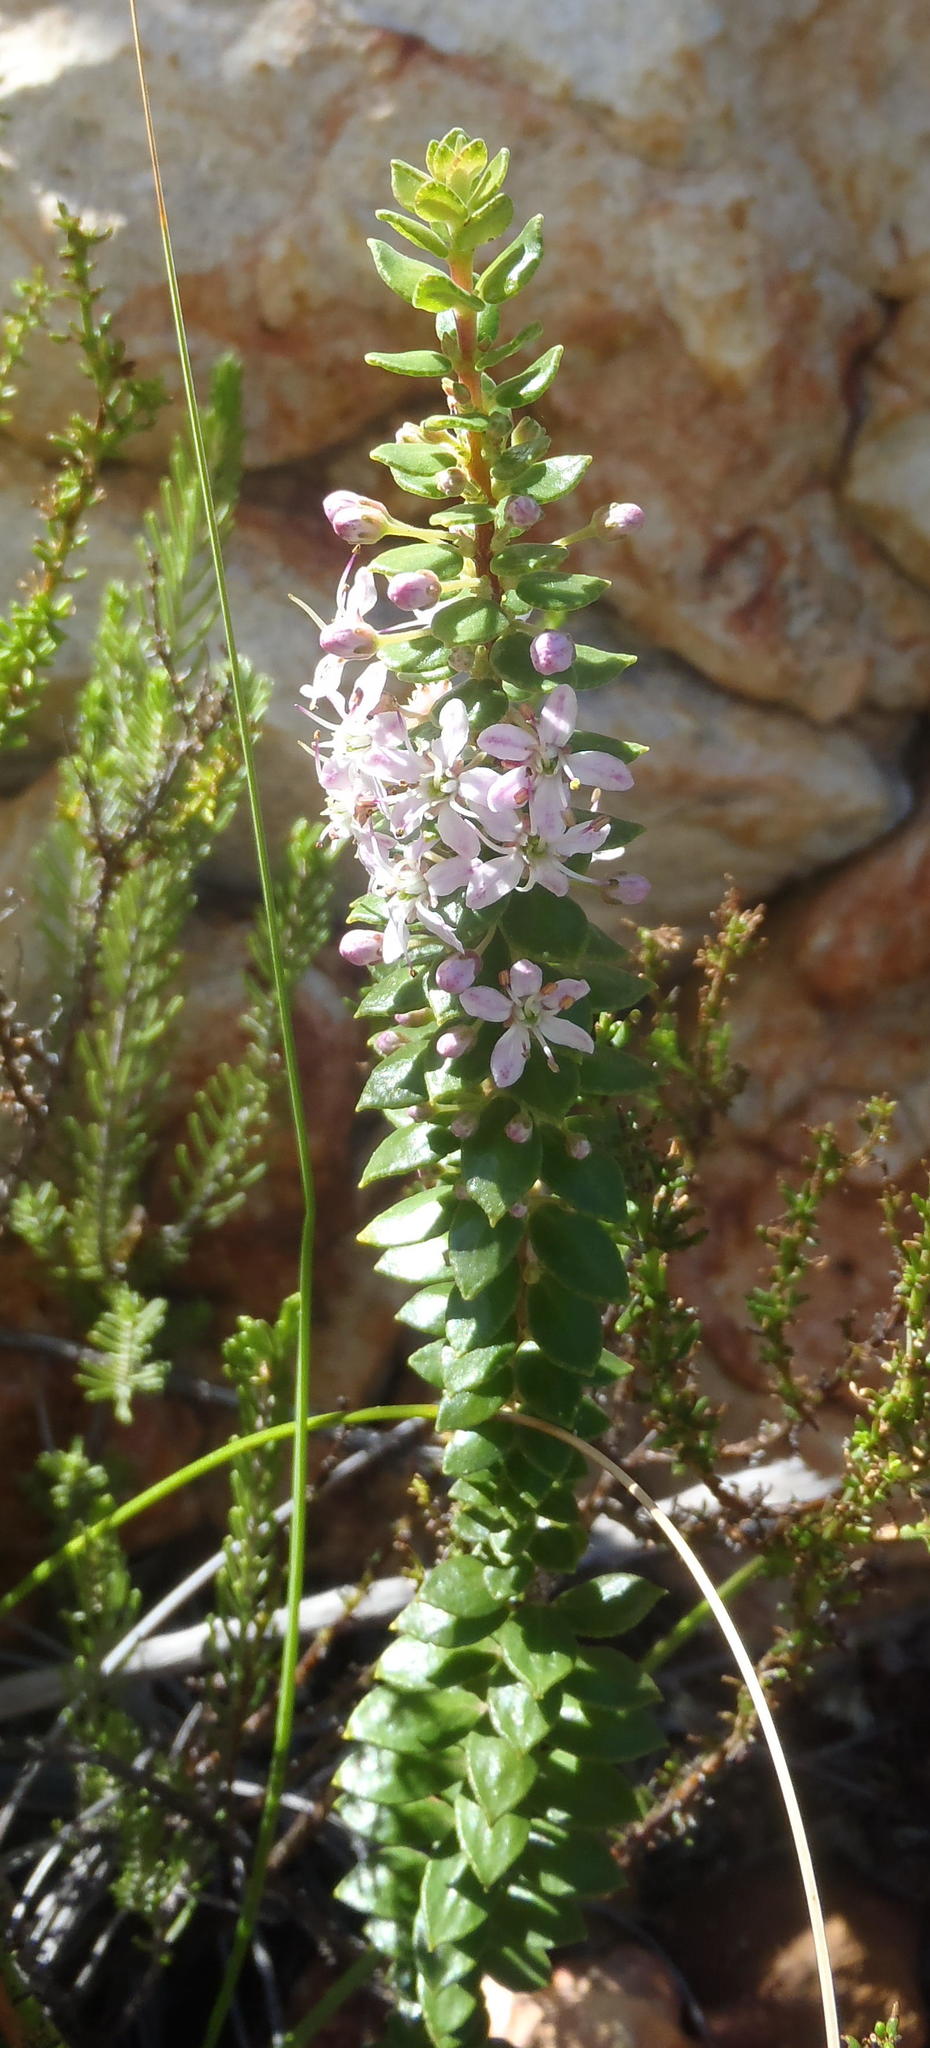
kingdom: Plantae
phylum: Tracheophyta
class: Magnoliopsida
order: Sapindales
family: Rutaceae
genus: Agathosma
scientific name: Agathosma ovata
